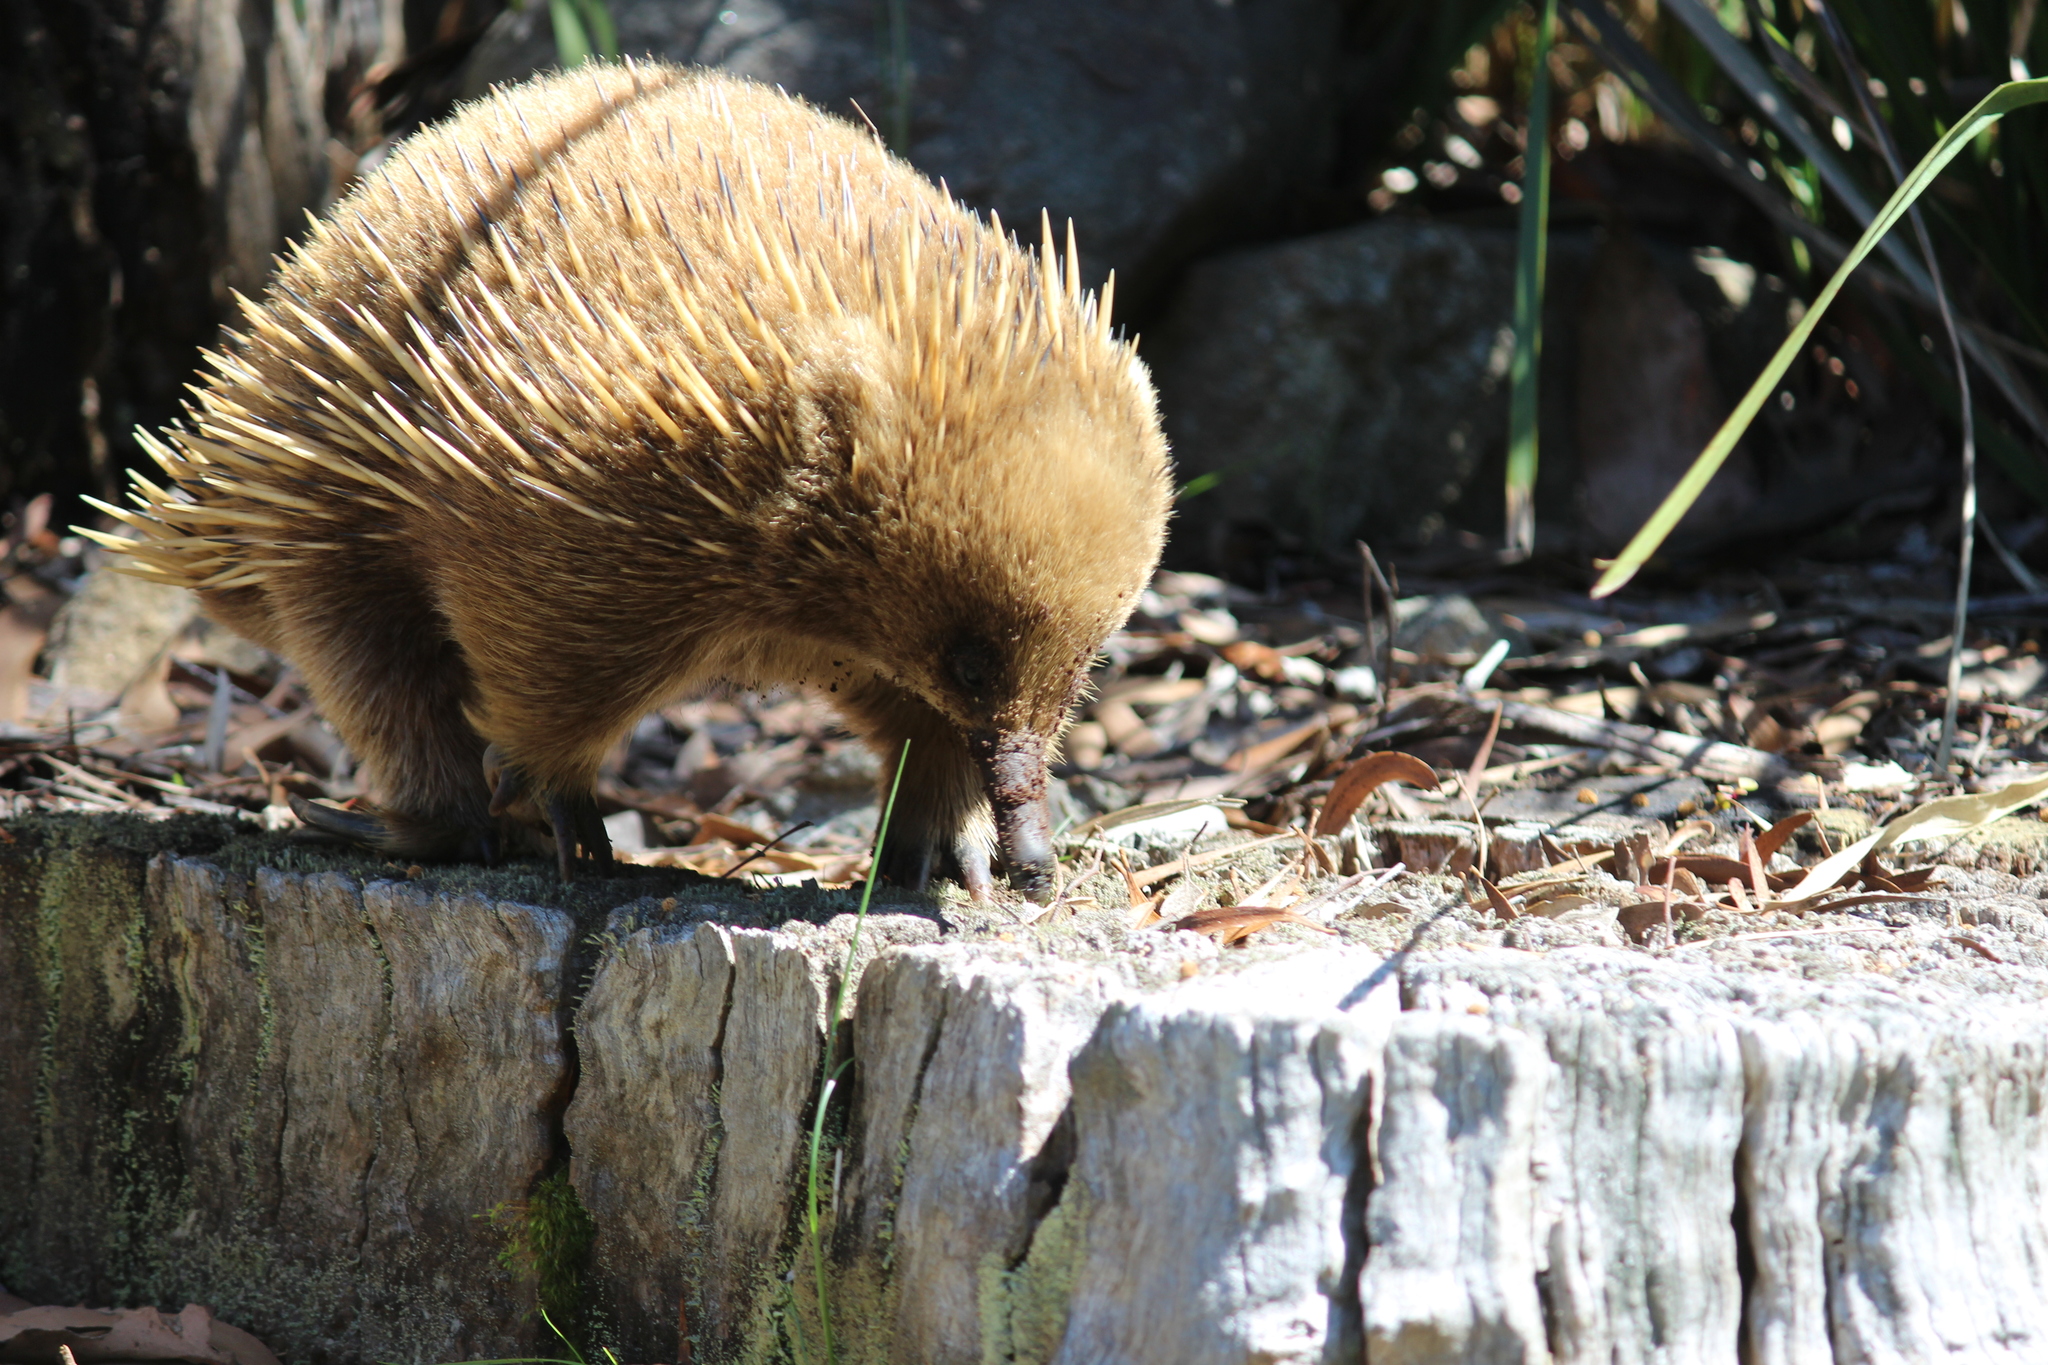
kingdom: Animalia
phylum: Chordata
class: Mammalia
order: Monotremata
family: Tachyglossidae
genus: Tachyglossus
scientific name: Tachyglossus aculeatus
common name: Short-beaked echidna
